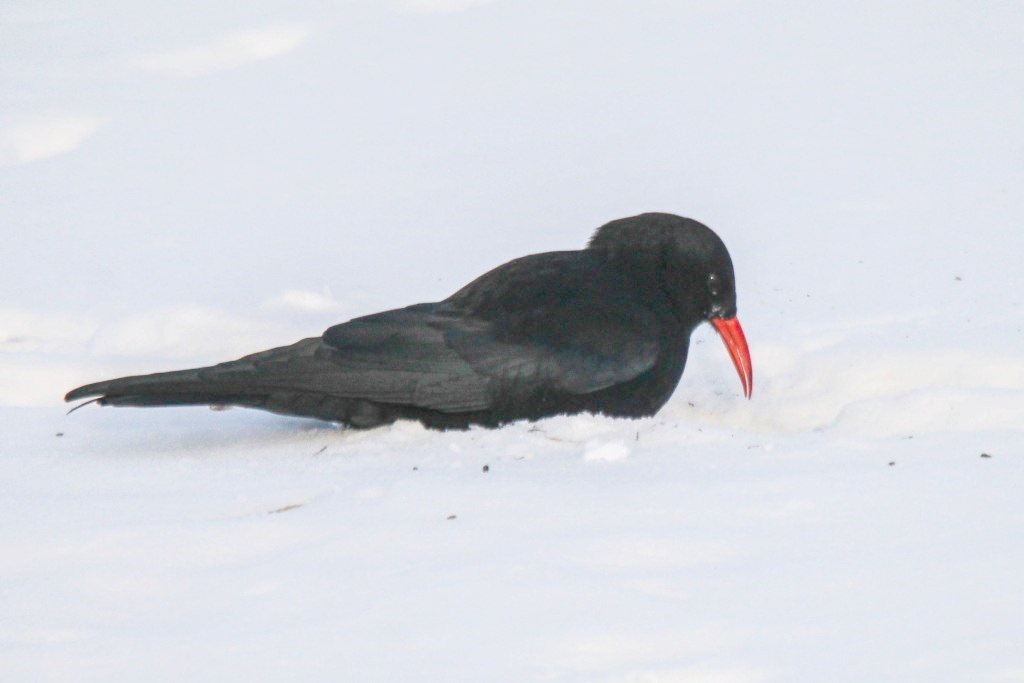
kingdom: Animalia
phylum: Chordata
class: Aves
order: Passeriformes
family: Corvidae
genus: Pyrrhocorax
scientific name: Pyrrhocorax pyrrhocorax
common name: Red-billed chough
